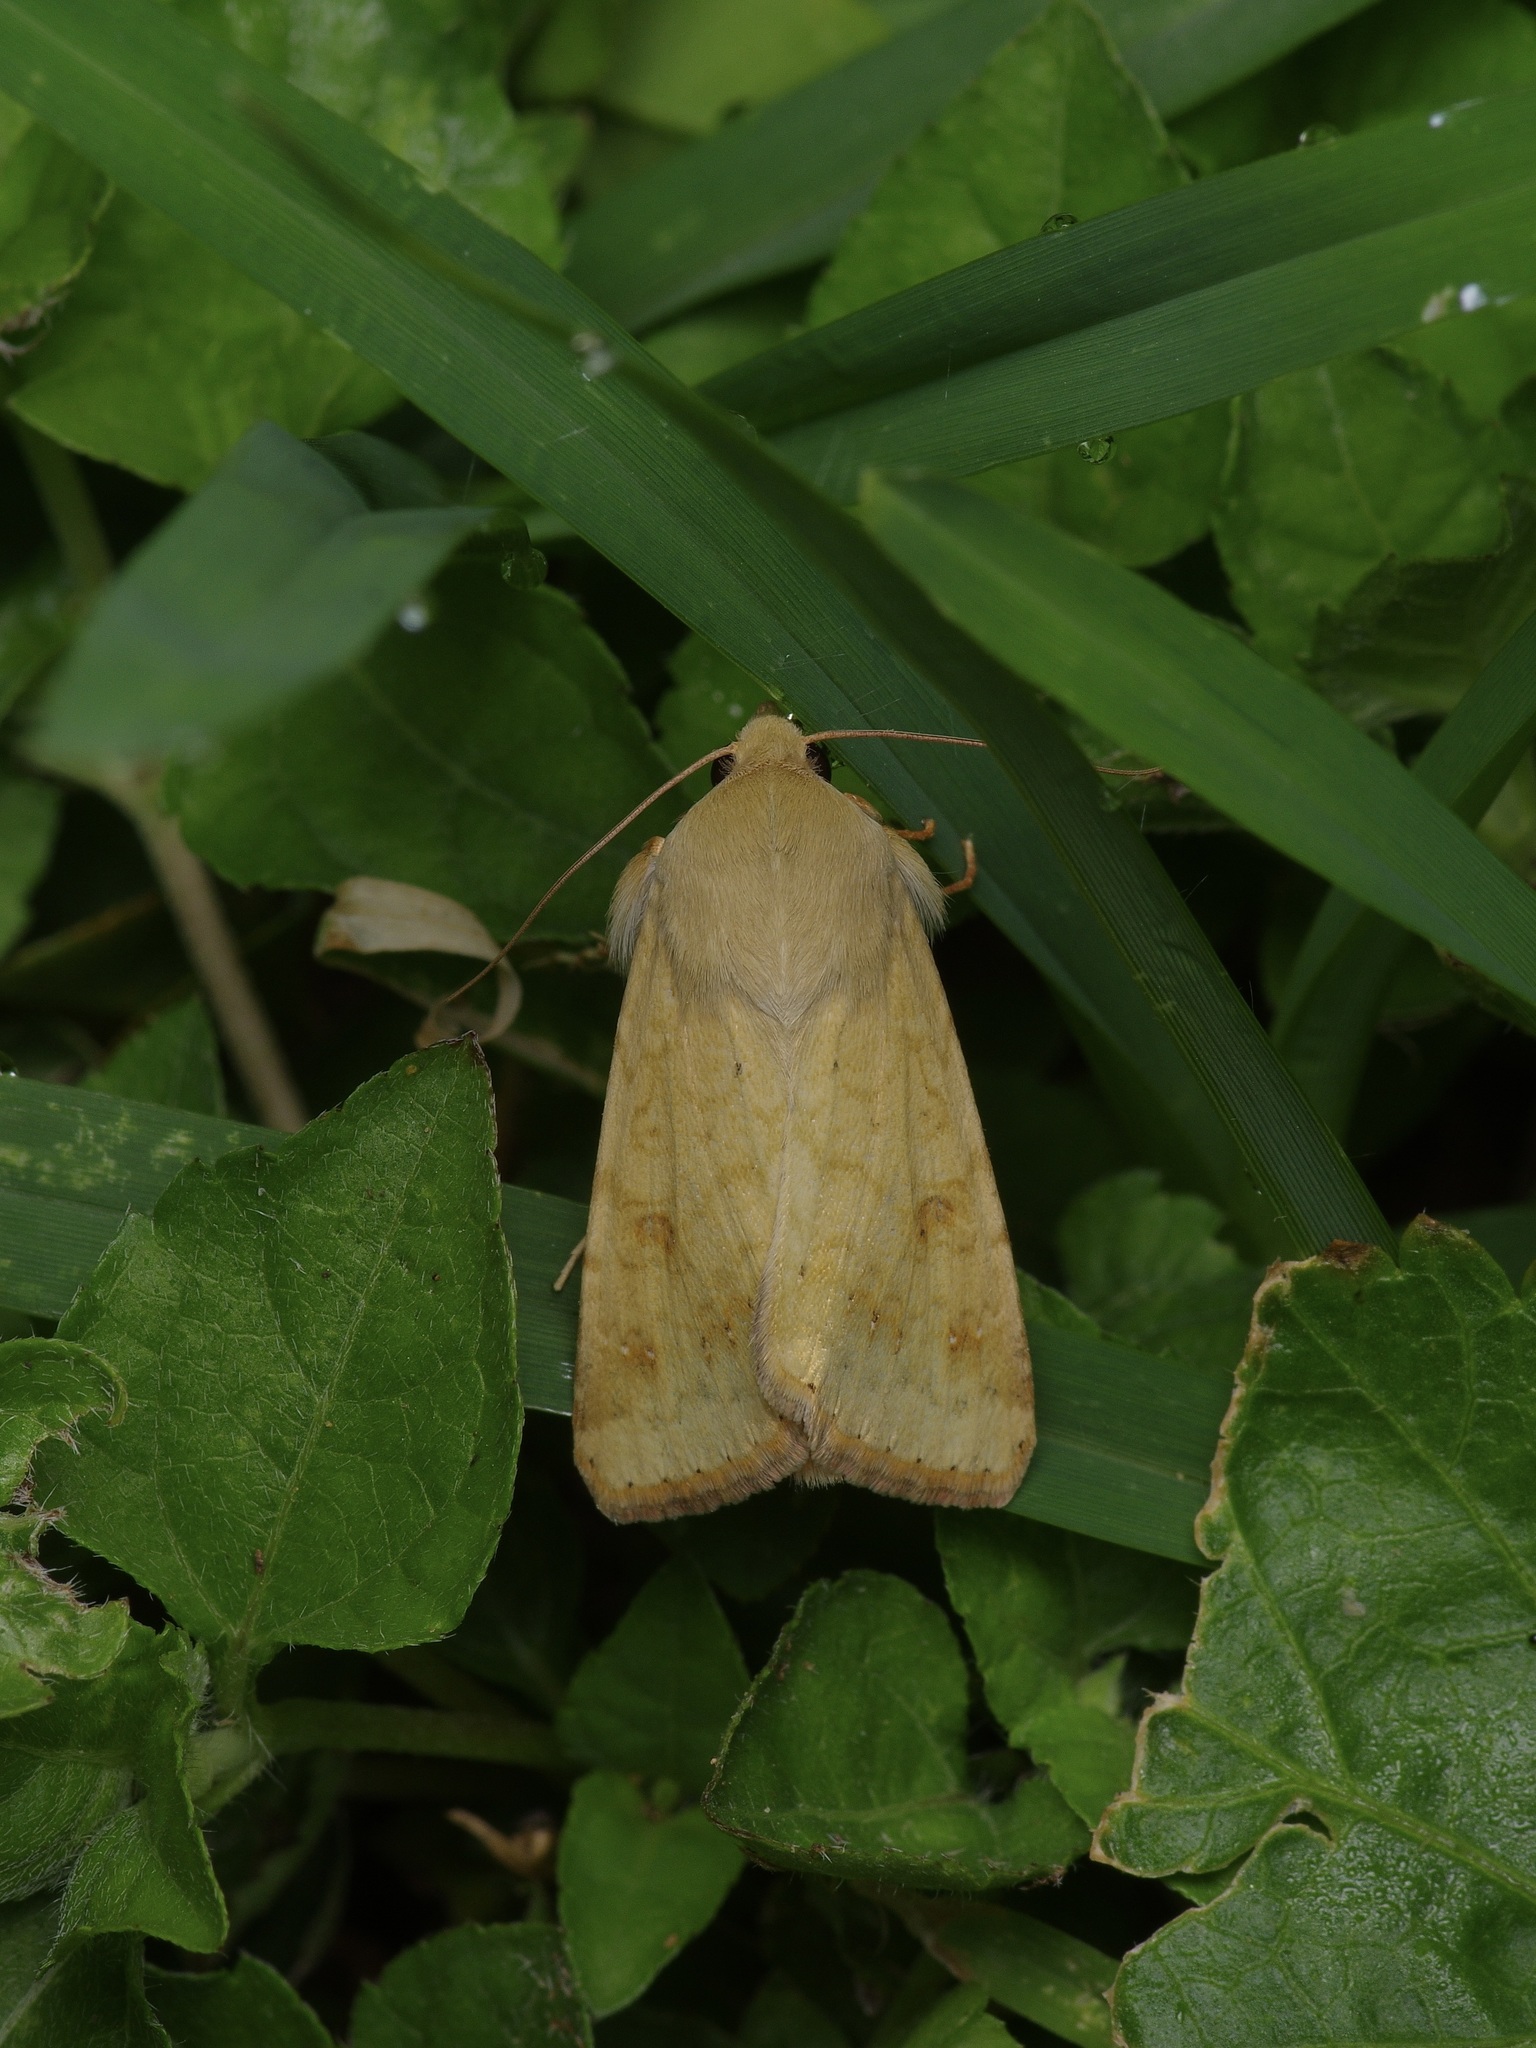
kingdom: Animalia
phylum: Arthropoda
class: Insecta
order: Lepidoptera
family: Noctuidae
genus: Helicoverpa
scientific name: Helicoverpa zea
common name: Bollworm
